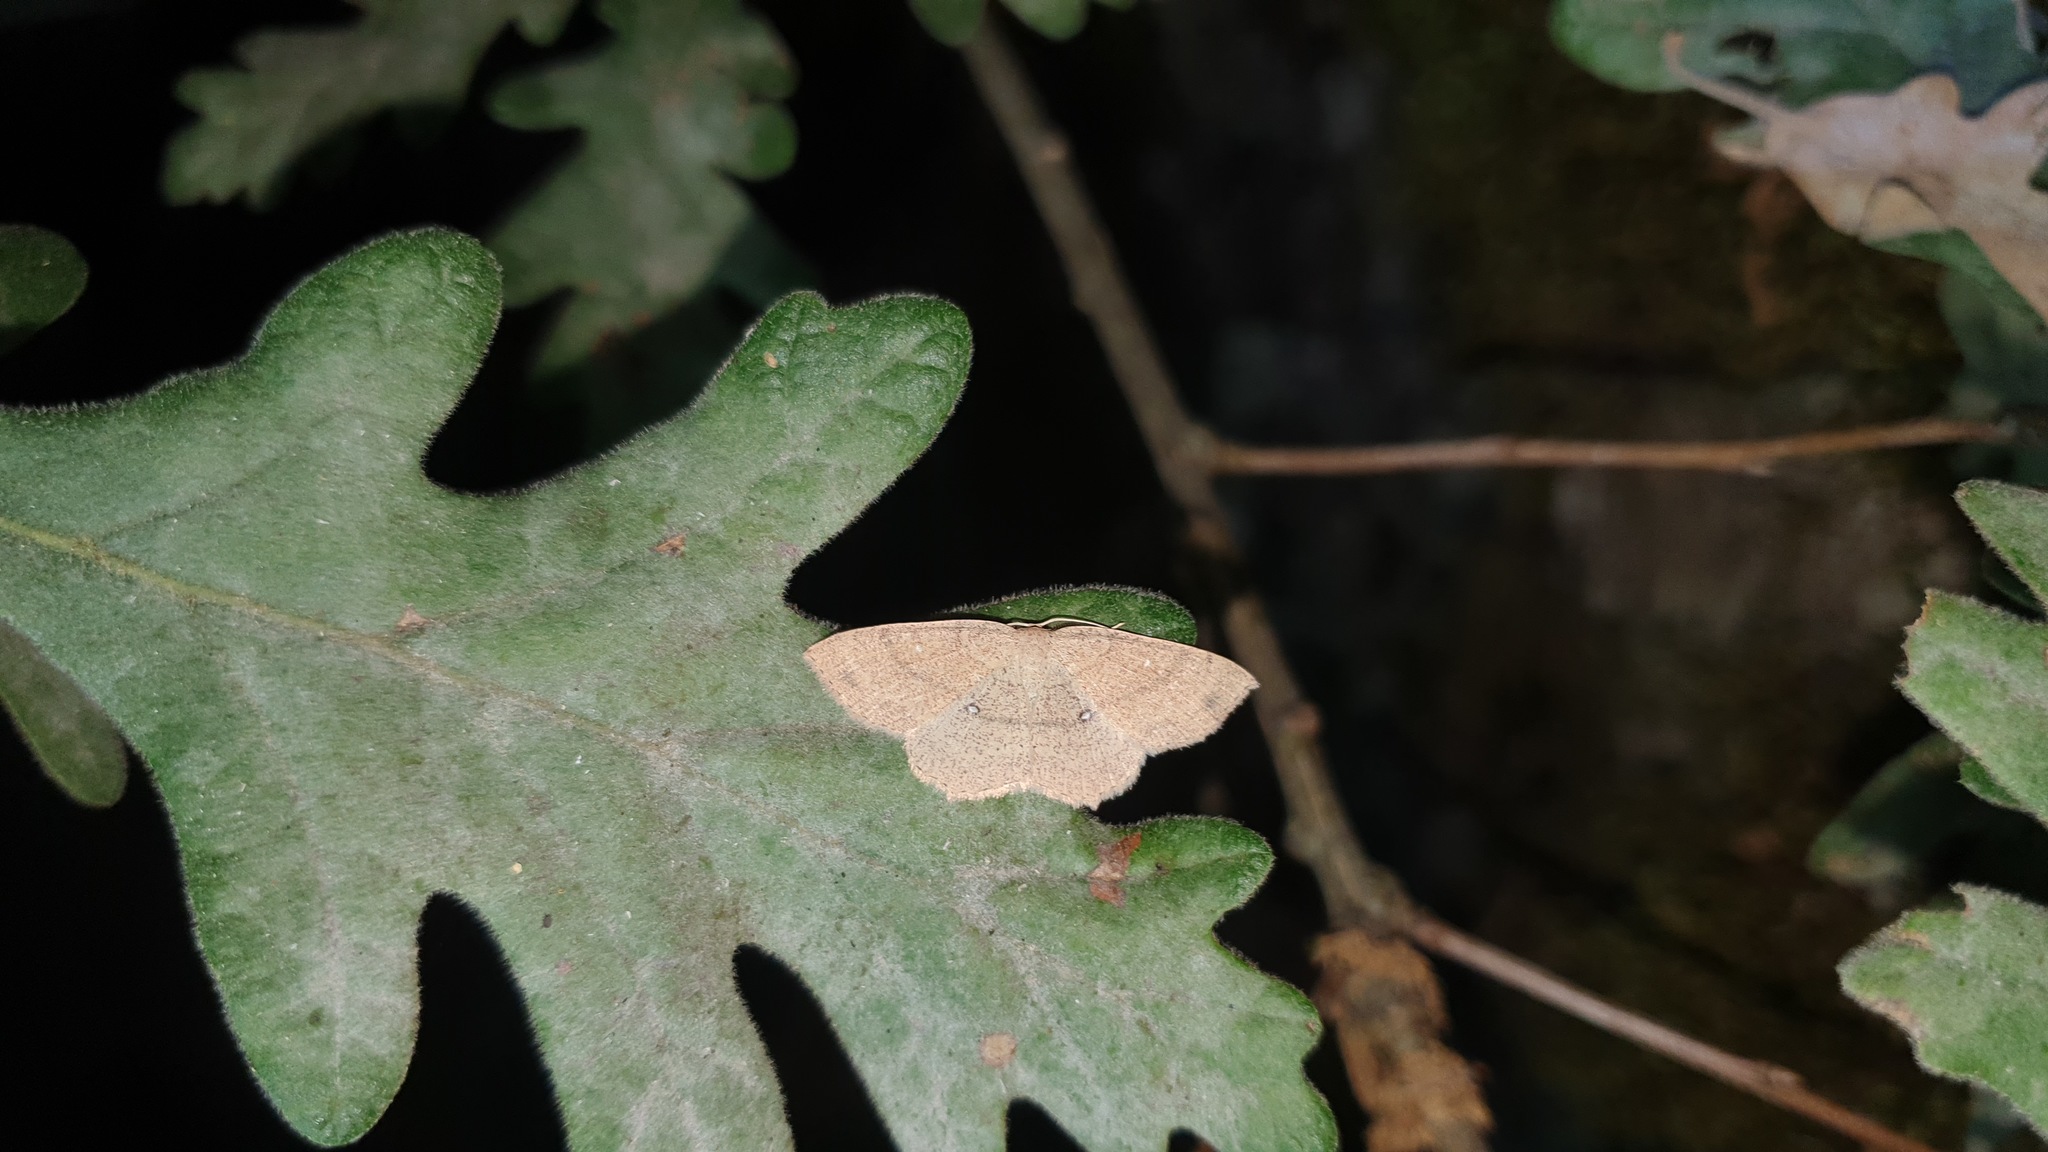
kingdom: Animalia
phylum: Arthropoda
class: Insecta
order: Lepidoptera
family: Geometridae
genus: Cyclophora
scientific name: Cyclophora ruficiliaria
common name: Jersey mocha
